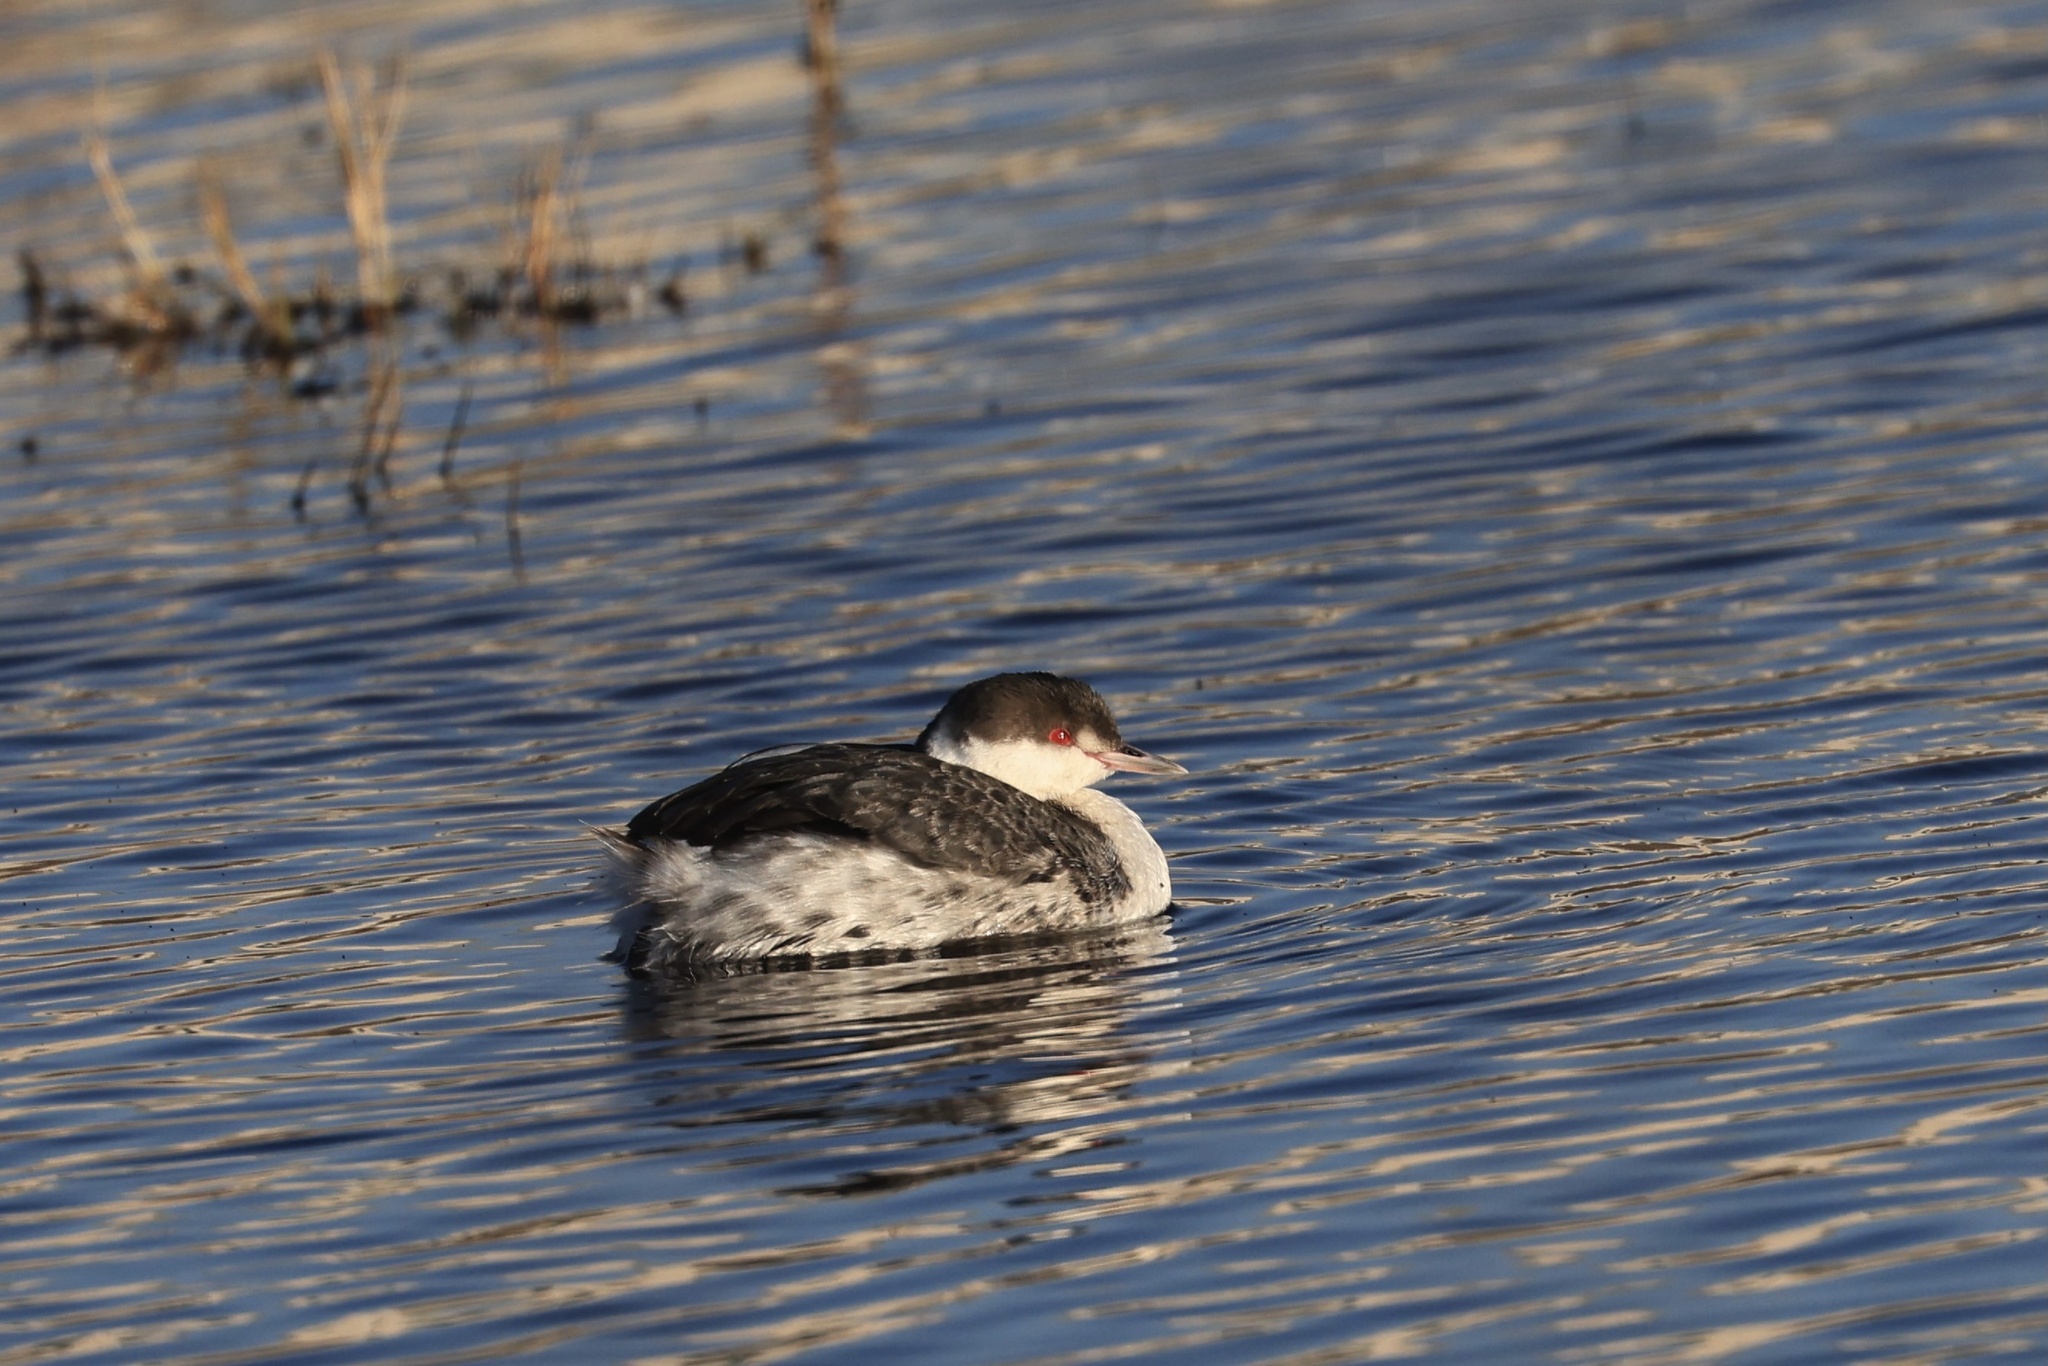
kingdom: Animalia
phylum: Chordata
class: Aves
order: Podicipediformes
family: Podicipedidae
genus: Podiceps
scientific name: Podiceps auritus
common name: Horned grebe
